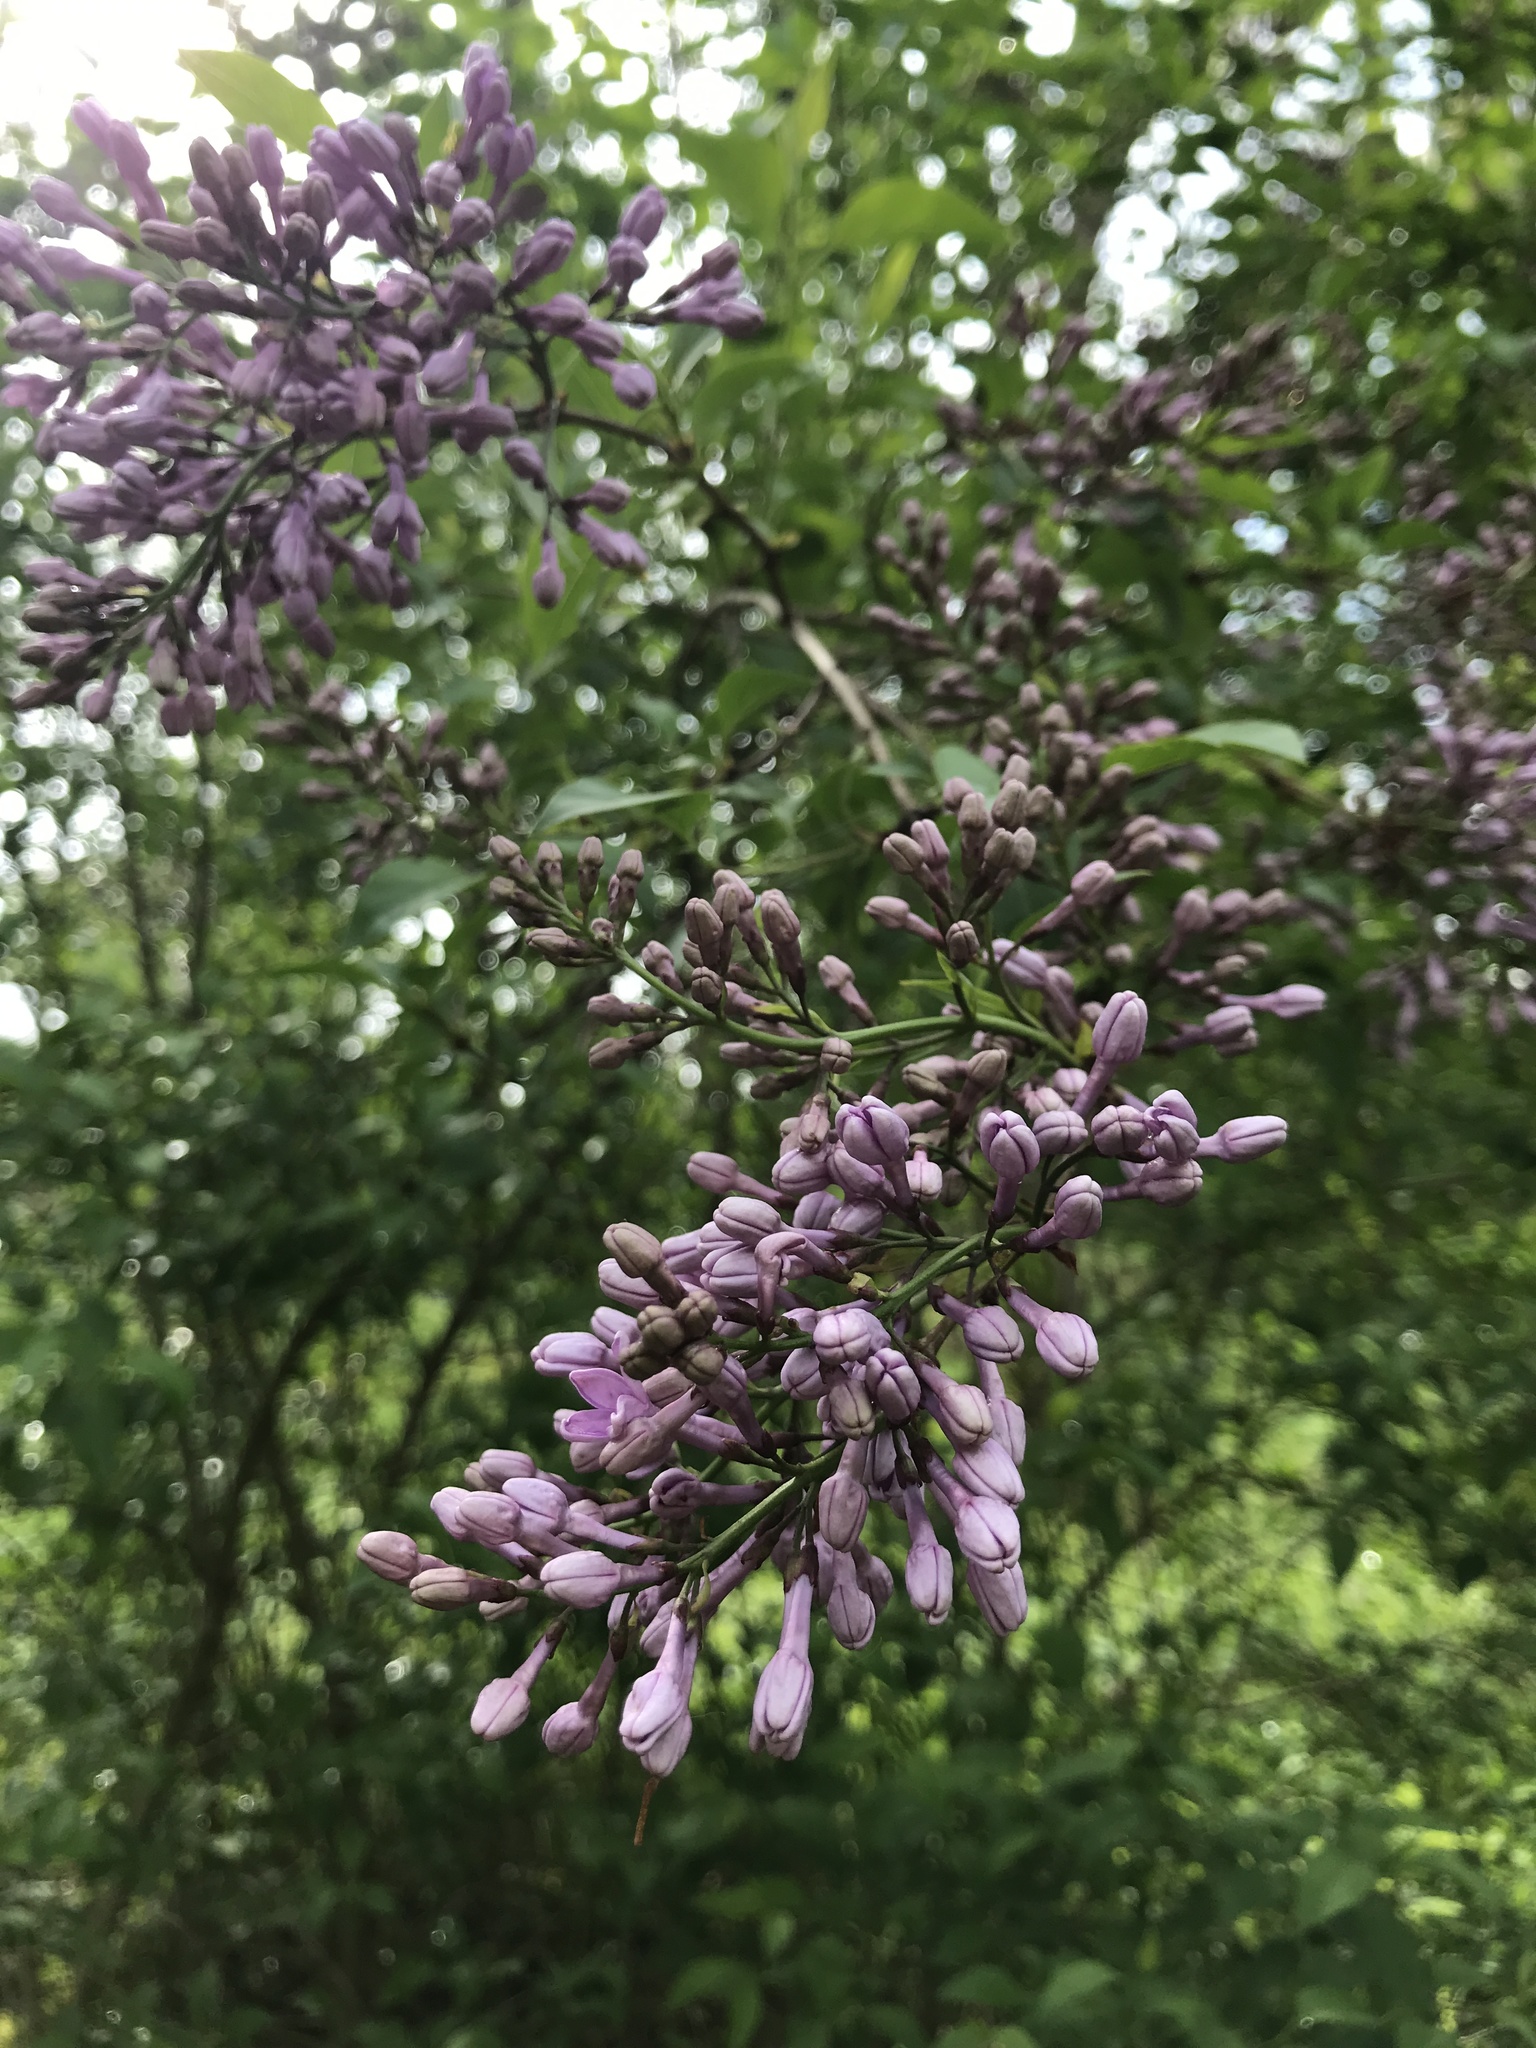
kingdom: Plantae
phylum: Tracheophyta
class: Magnoliopsida
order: Lamiales
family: Oleaceae
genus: Syringa
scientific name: Syringa vulgaris
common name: Common lilac
